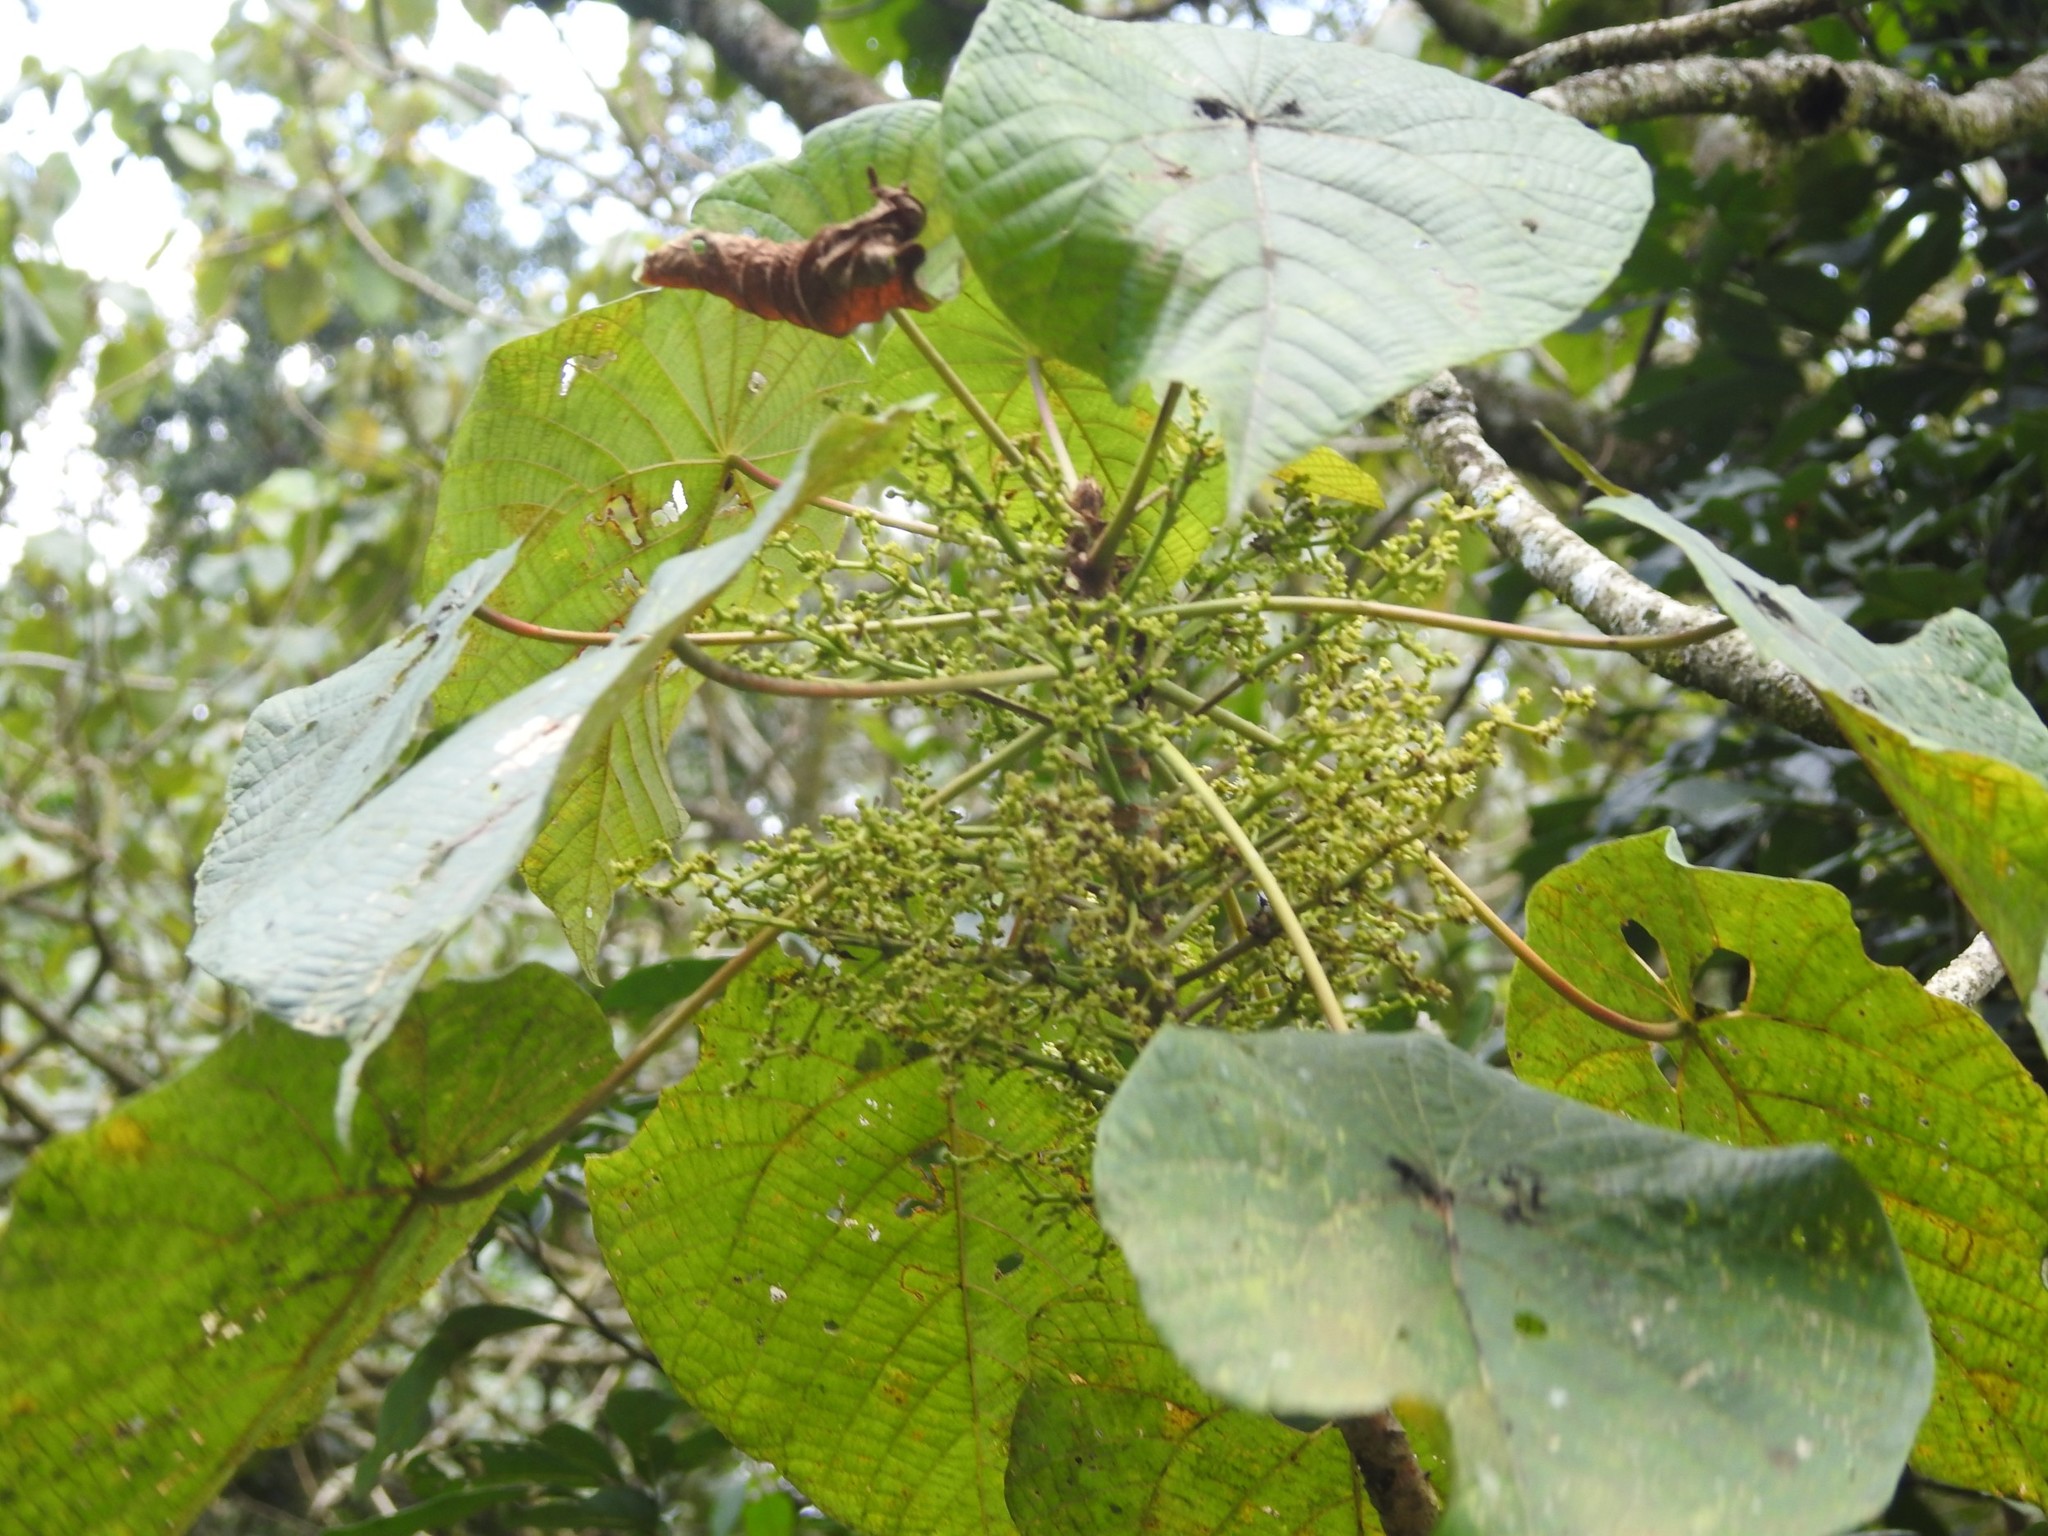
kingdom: Plantae
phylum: Tracheophyta
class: Magnoliopsida
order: Malpighiales
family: Euphorbiaceae
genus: Macaranga
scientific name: Macaranga peltata
